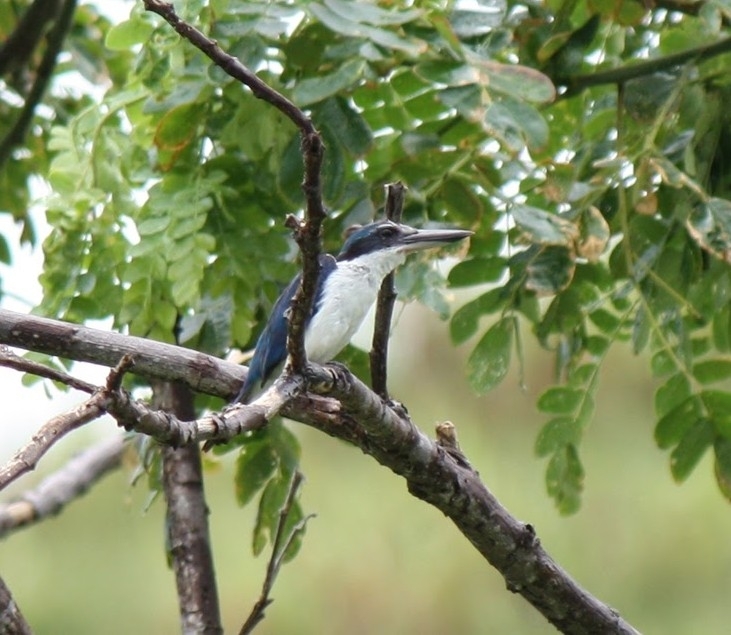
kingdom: Animalia
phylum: Chordata
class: Aves
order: Coraciiformes
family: Alcedinidae
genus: Todiramphus
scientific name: Todiramphus sacer
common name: Pacific kingfisher
